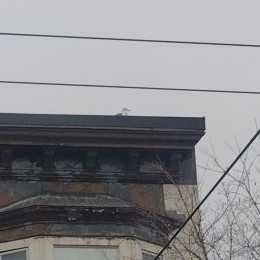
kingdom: Animalia
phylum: Chordata
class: Aves
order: Charadriiformes
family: Laridae
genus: Larus
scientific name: Larus
